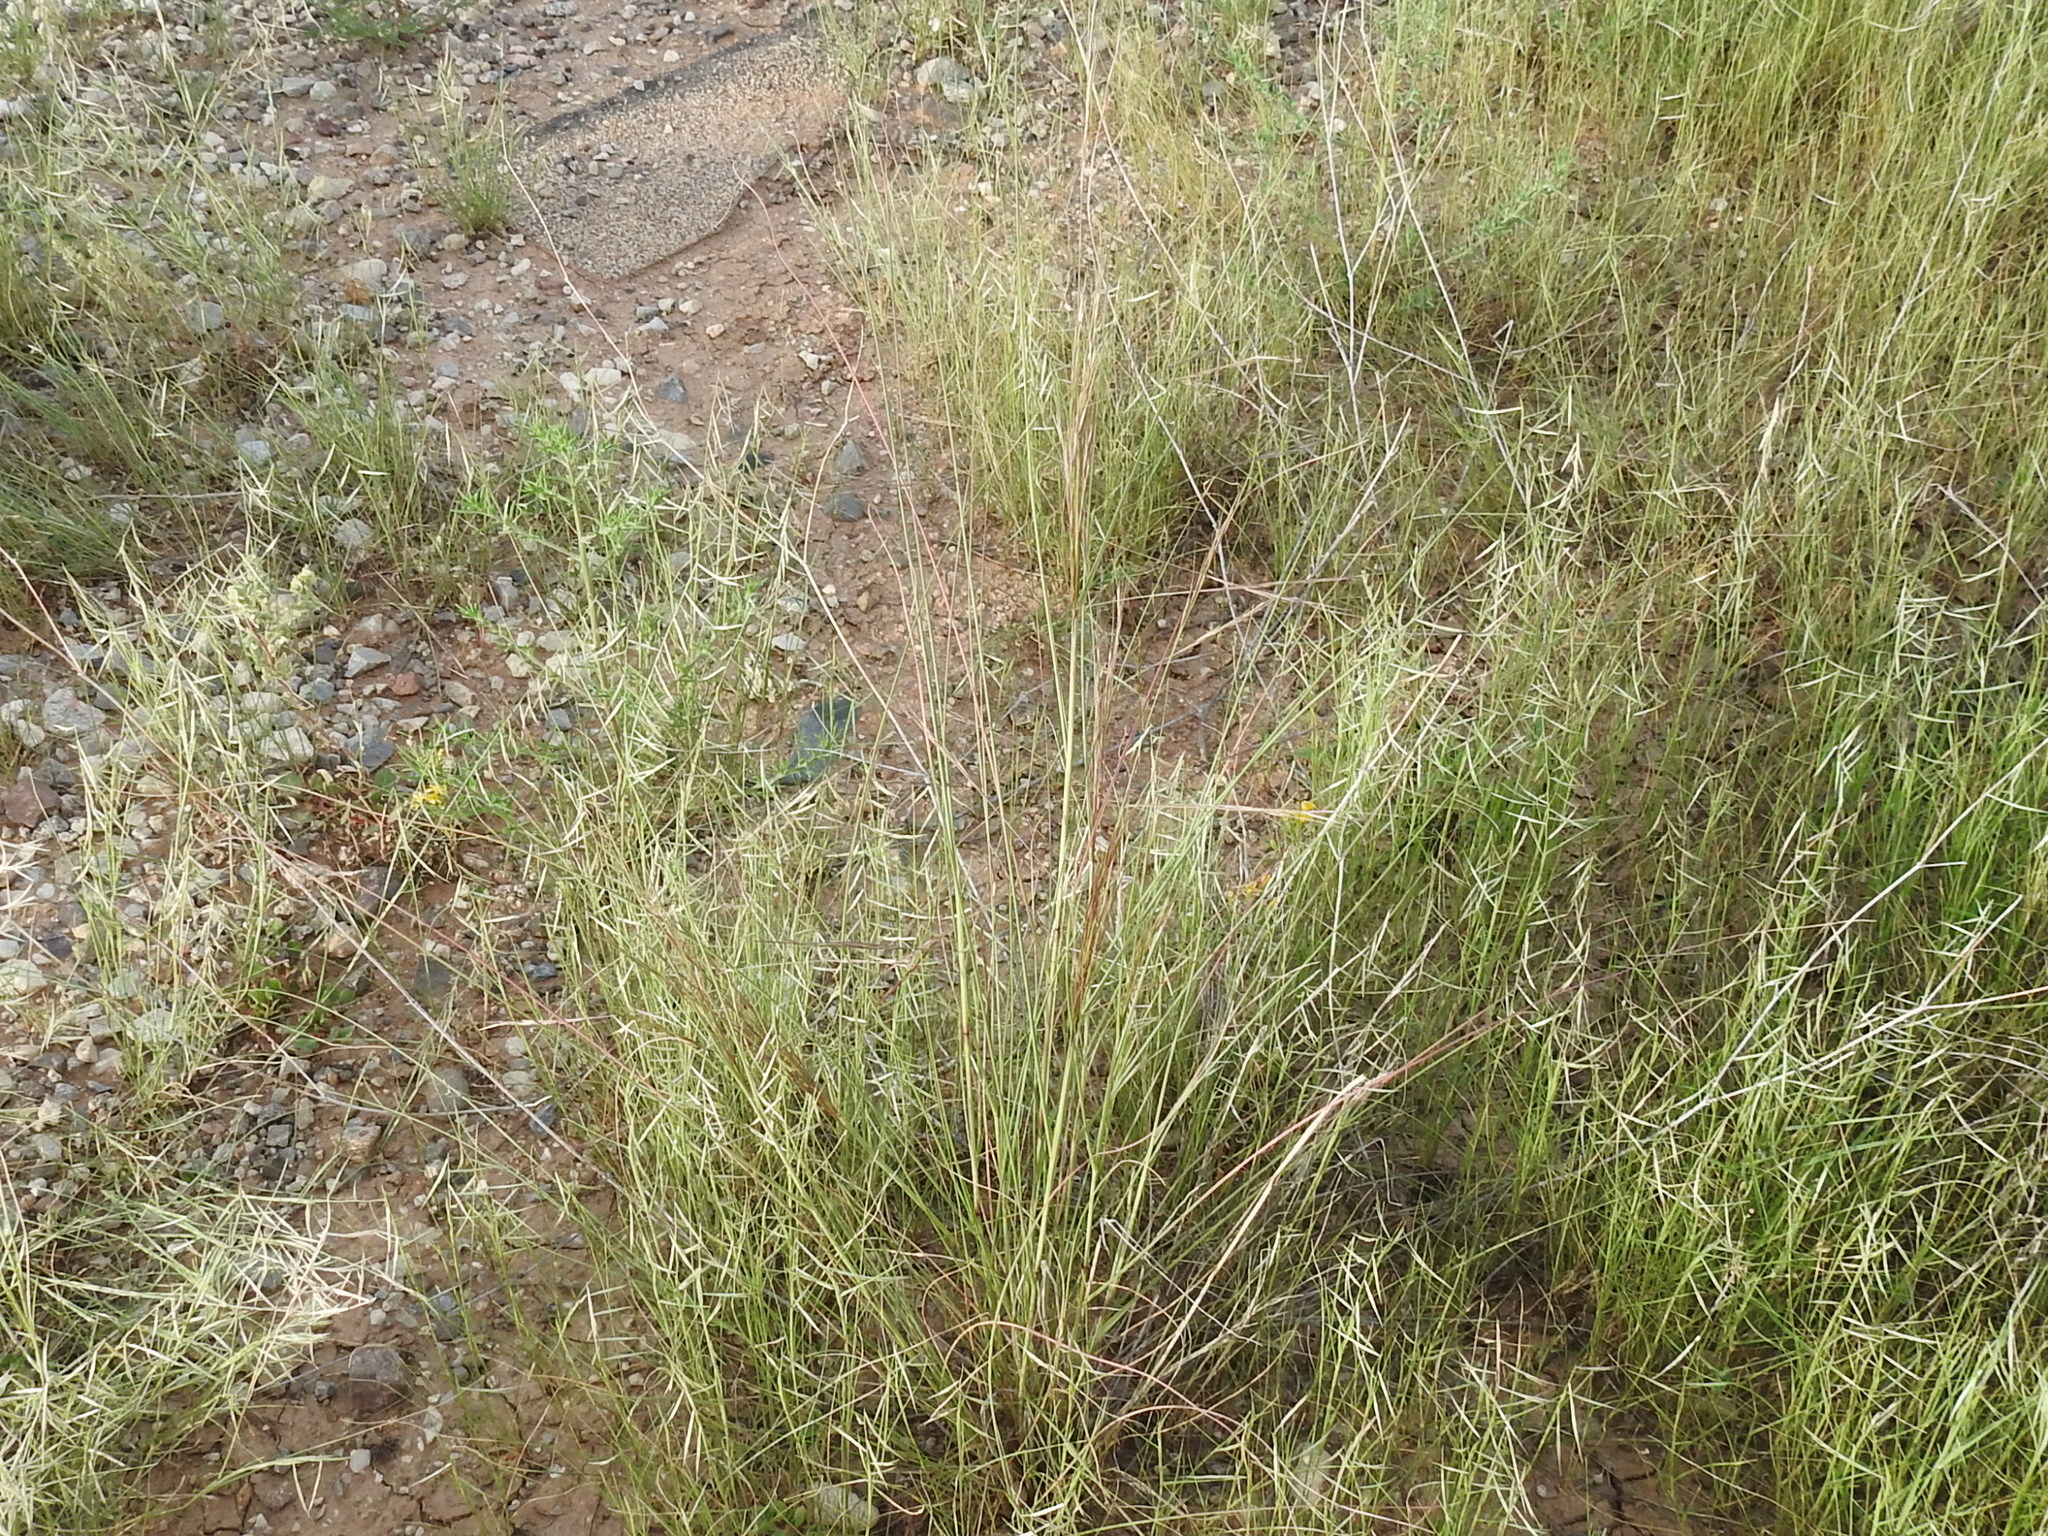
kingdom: Plantae
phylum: Tracheophyta
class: Liliopsida
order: Poales
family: Poaceae
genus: Aristida
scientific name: Aristida divaricata
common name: Poverty grass
